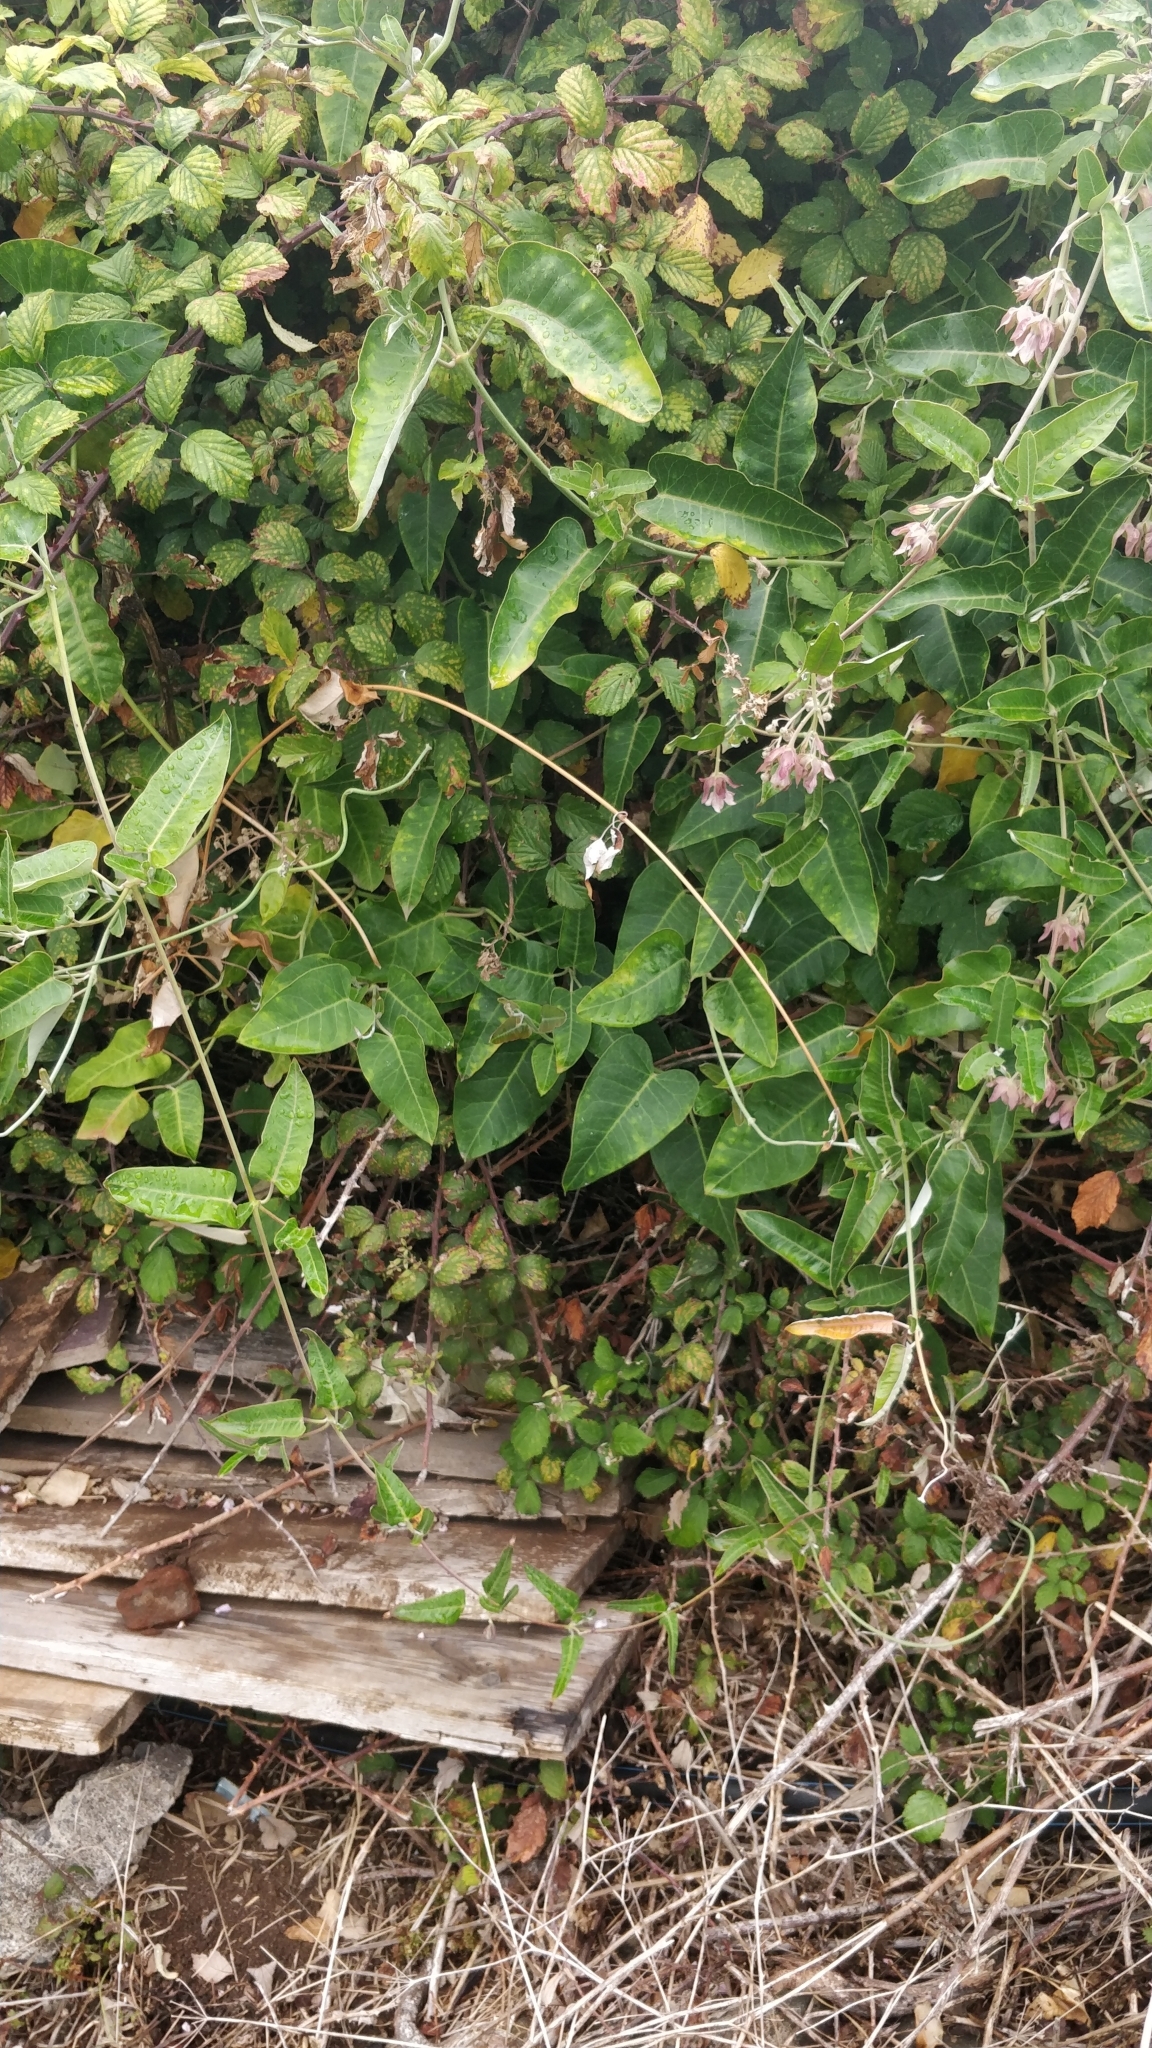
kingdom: Plantae
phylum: Tracheophyta
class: Magnoliopsida
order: Gentianales
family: Apocynaceae
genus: Araujia
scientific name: Araujia sericifera
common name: White bladderflower
